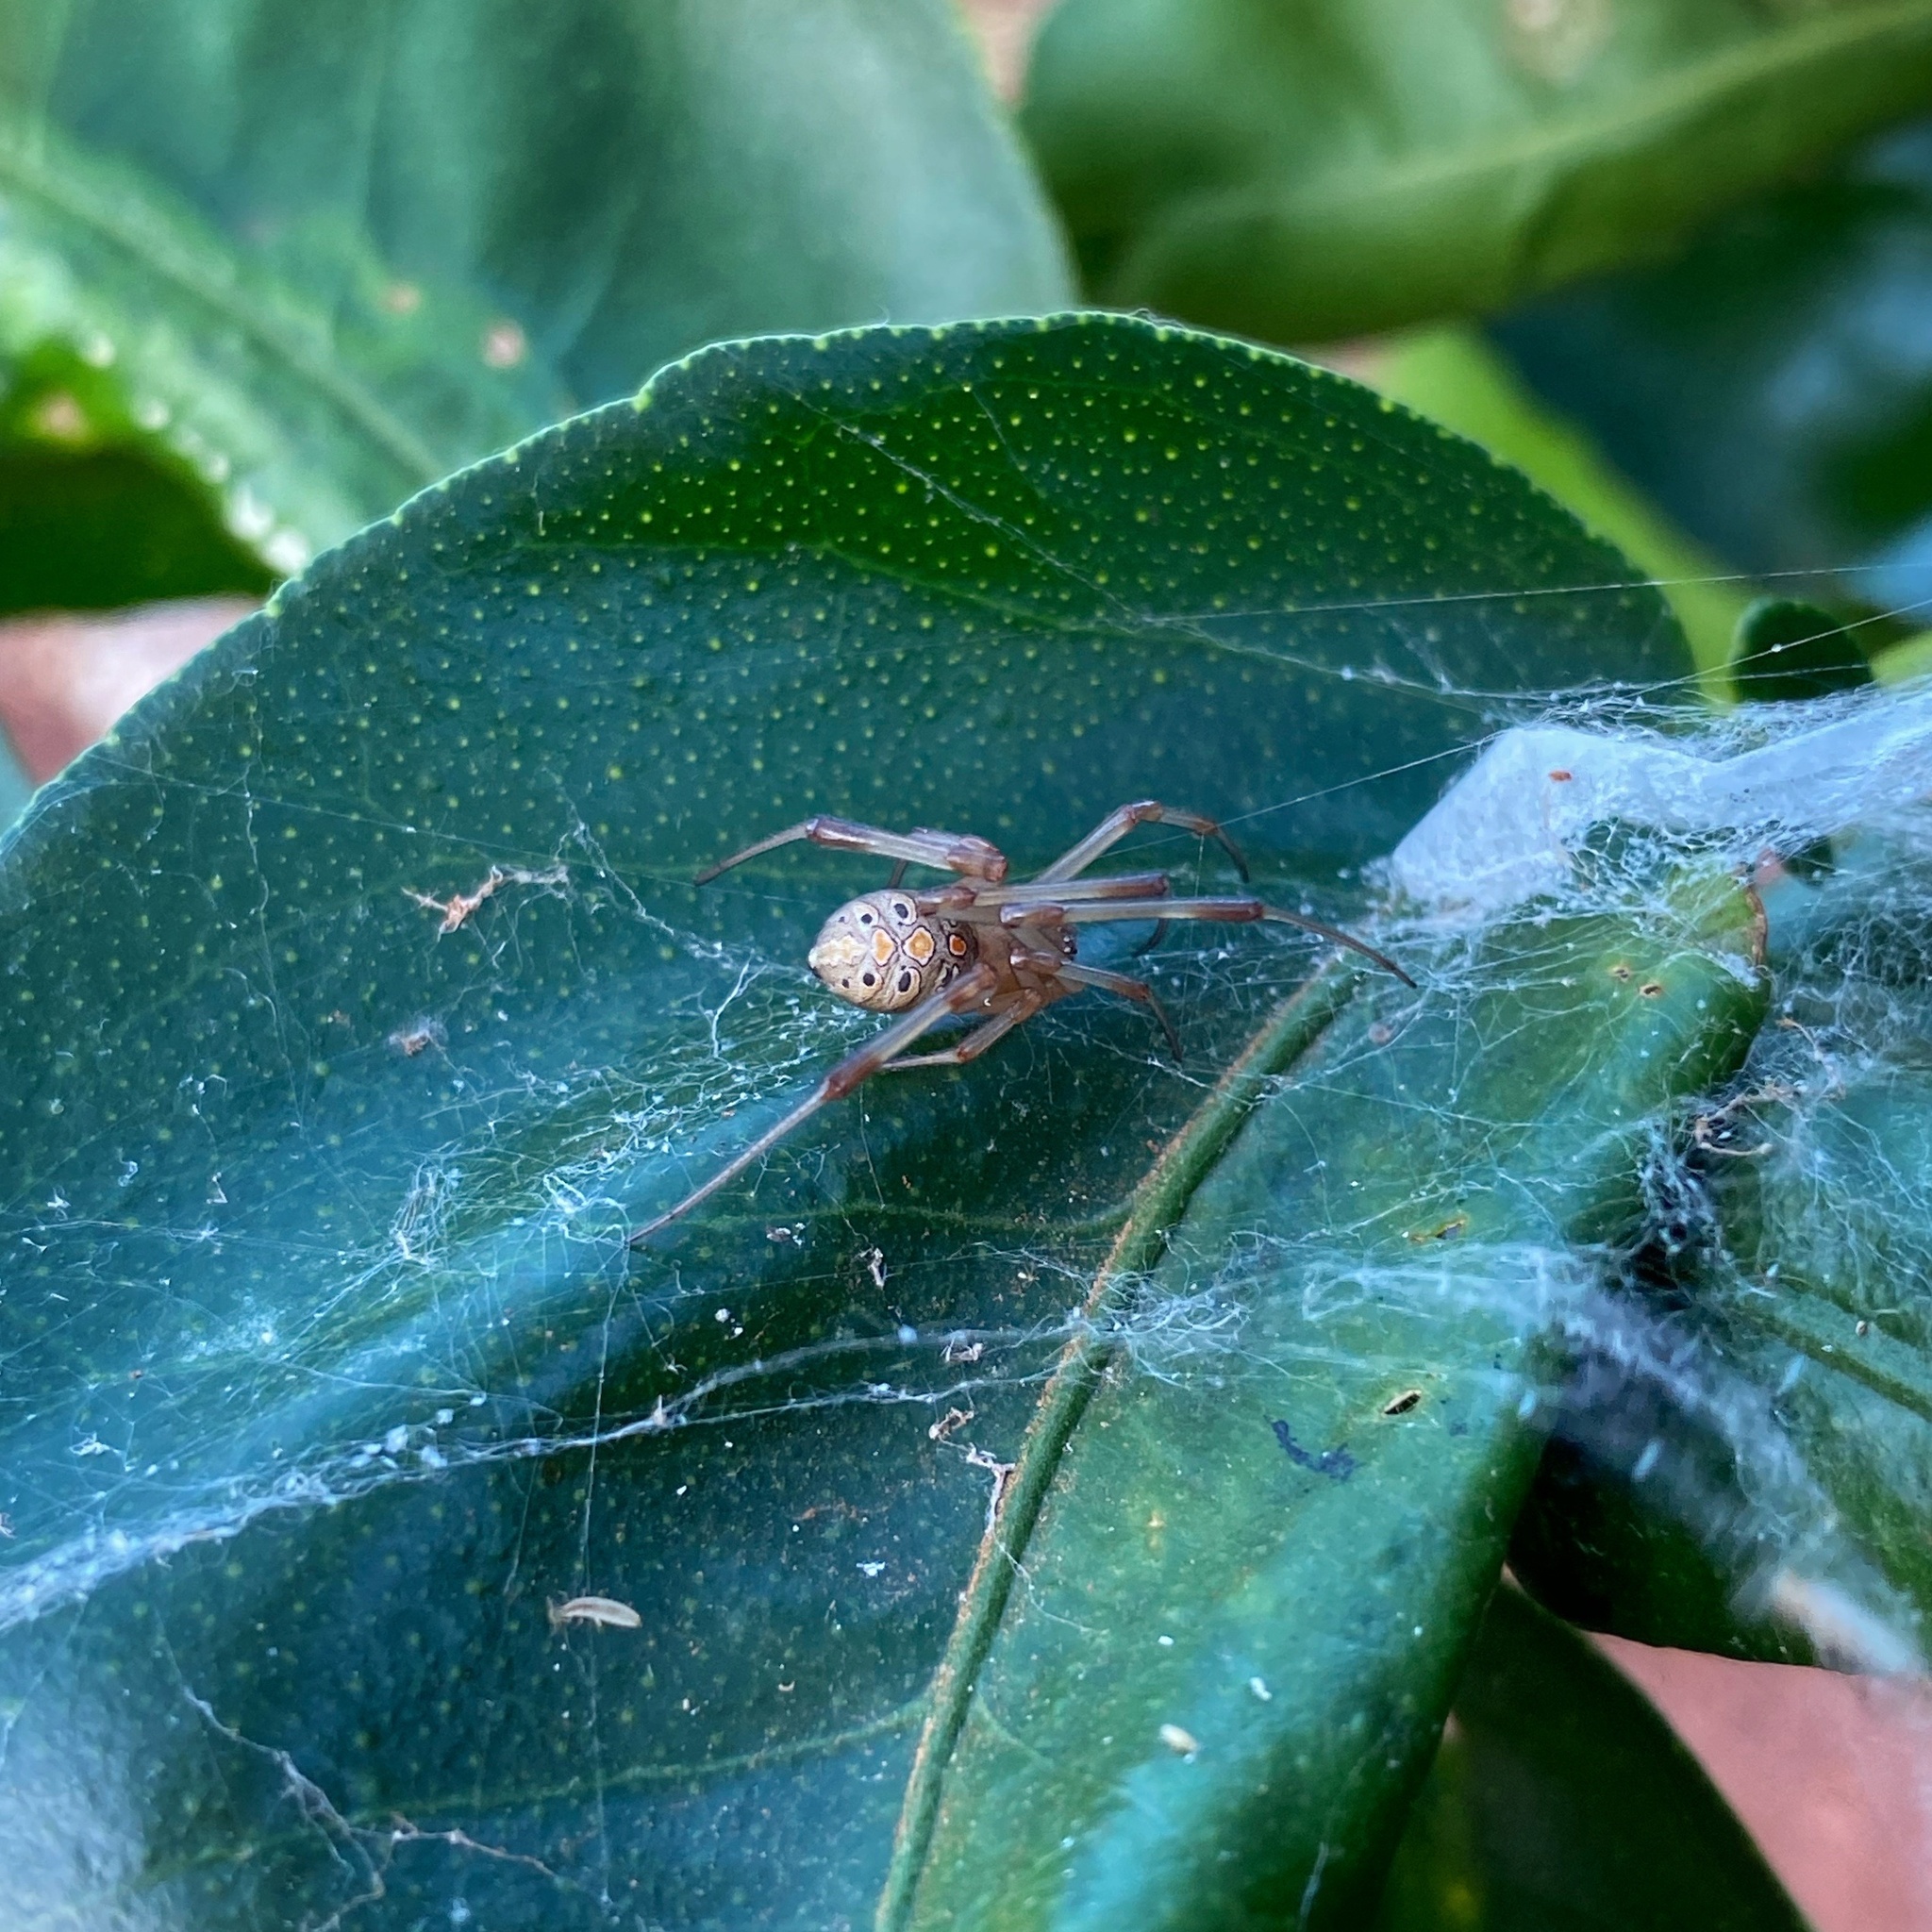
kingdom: Animalia
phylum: Arthropoda
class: Arachnida
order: Araneae
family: Theridiidae
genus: Latrodectus
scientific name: Latrodectus geometricus
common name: Brown widow spider
